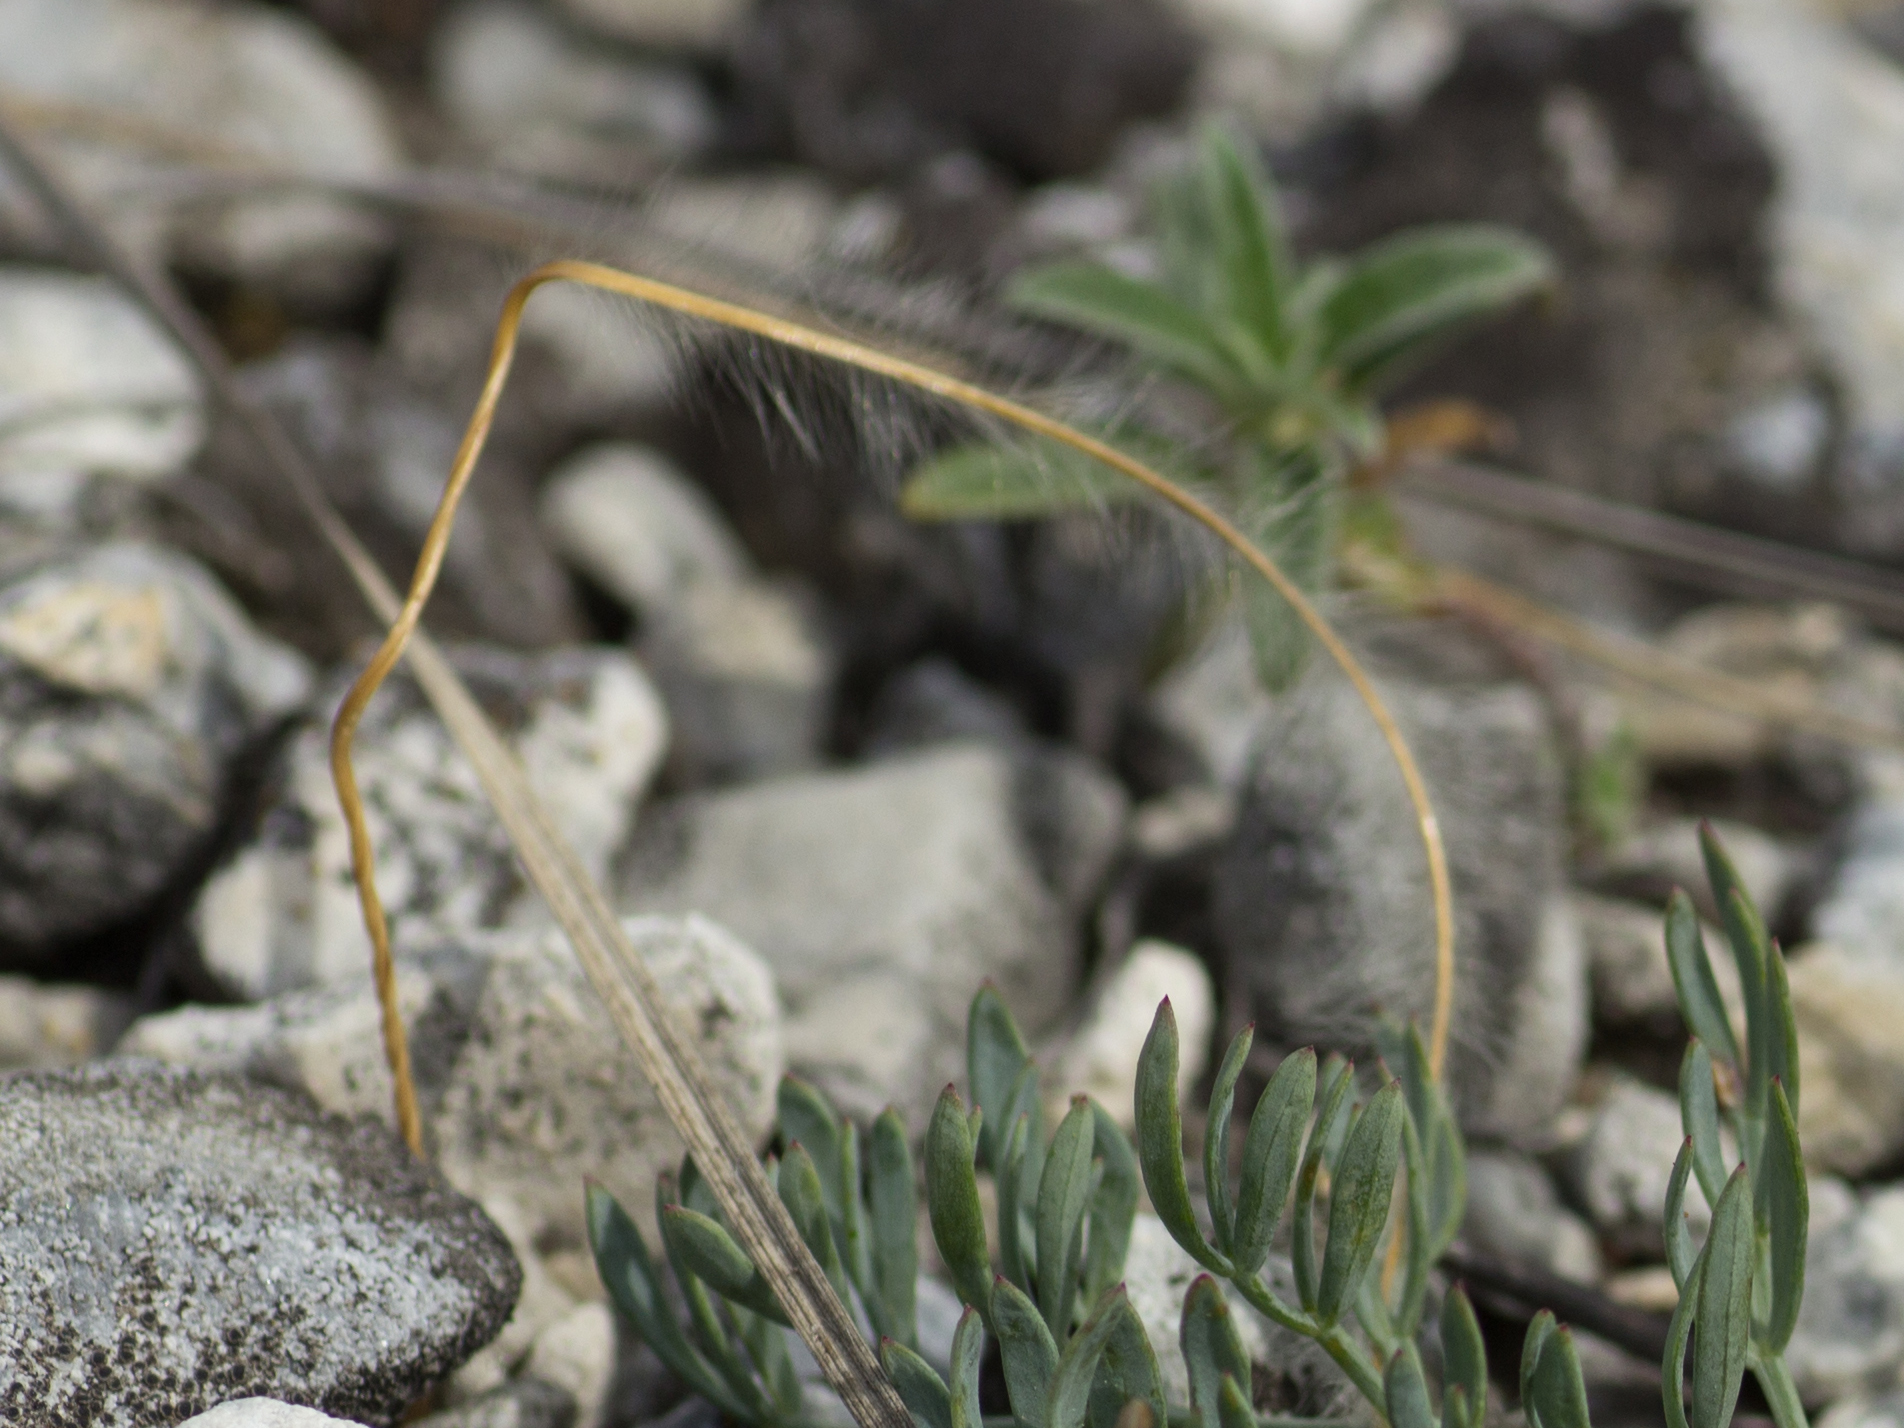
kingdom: Plantae
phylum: Tracheophyta
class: Liliopsida
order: Poales
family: Poaceae
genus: Stipa
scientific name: Stipa pennata
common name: European feather grass
